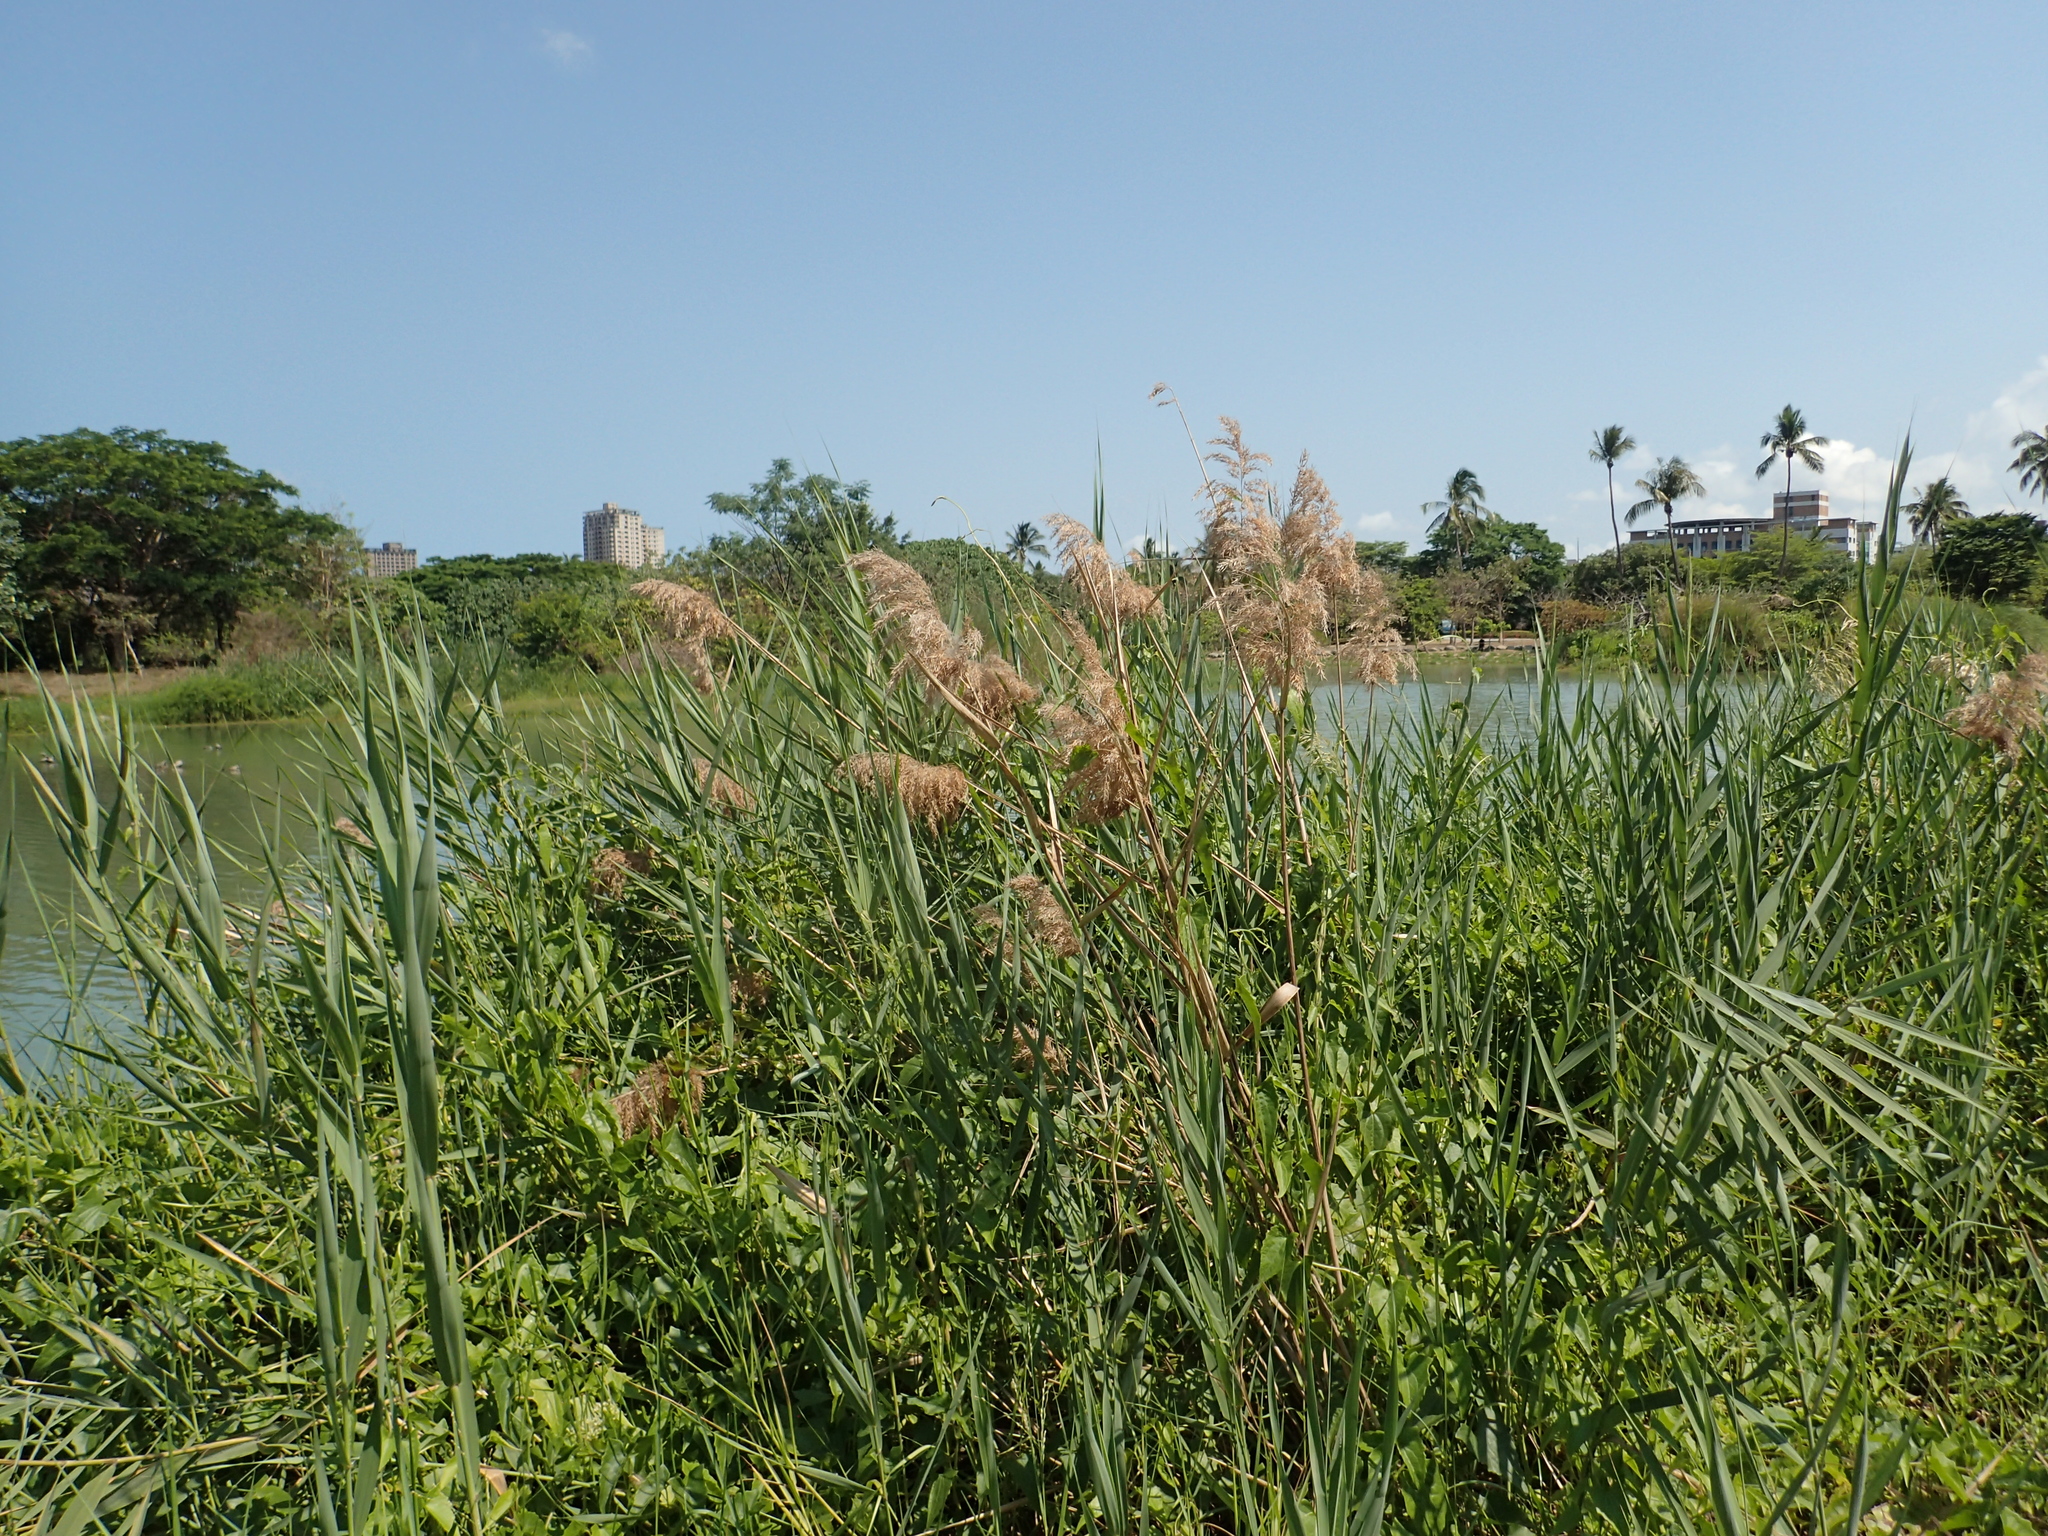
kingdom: Plantae
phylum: Tracheophyta
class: Liliopsida
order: Poales
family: Poaceae
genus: Phragmites
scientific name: Phragmites australis
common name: Common reed
